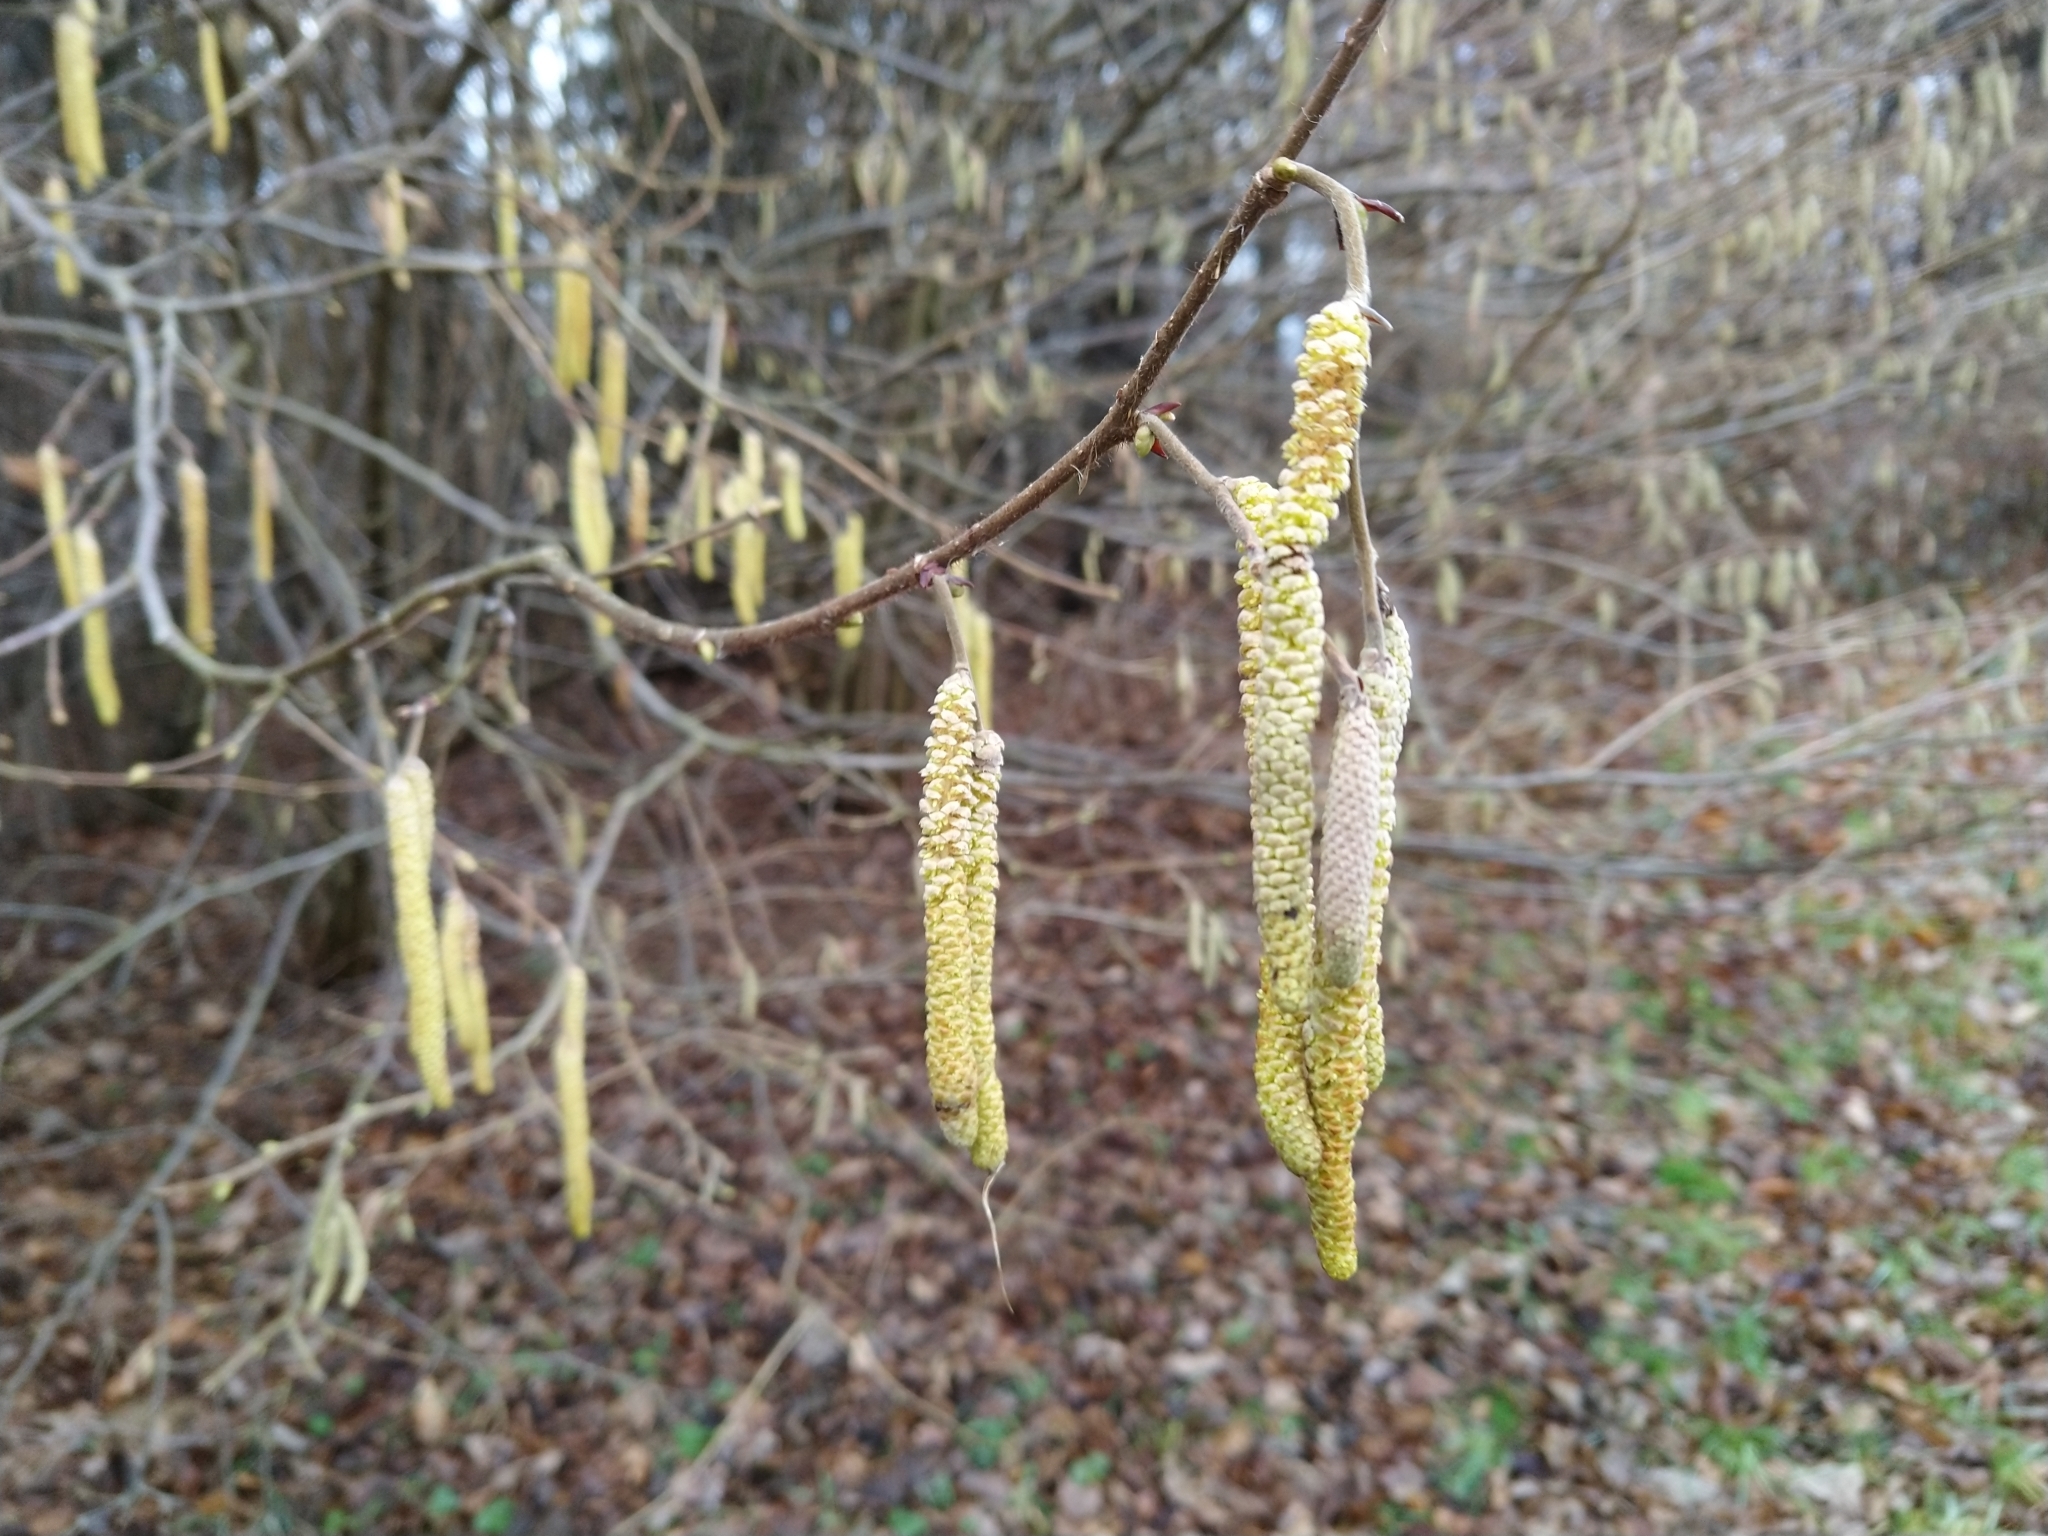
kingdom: Plantae
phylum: Tracheophyta
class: Magnoliopsida
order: Fagales
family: Betulaceae
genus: Corylus
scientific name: Corylus avellana
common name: European hazel
